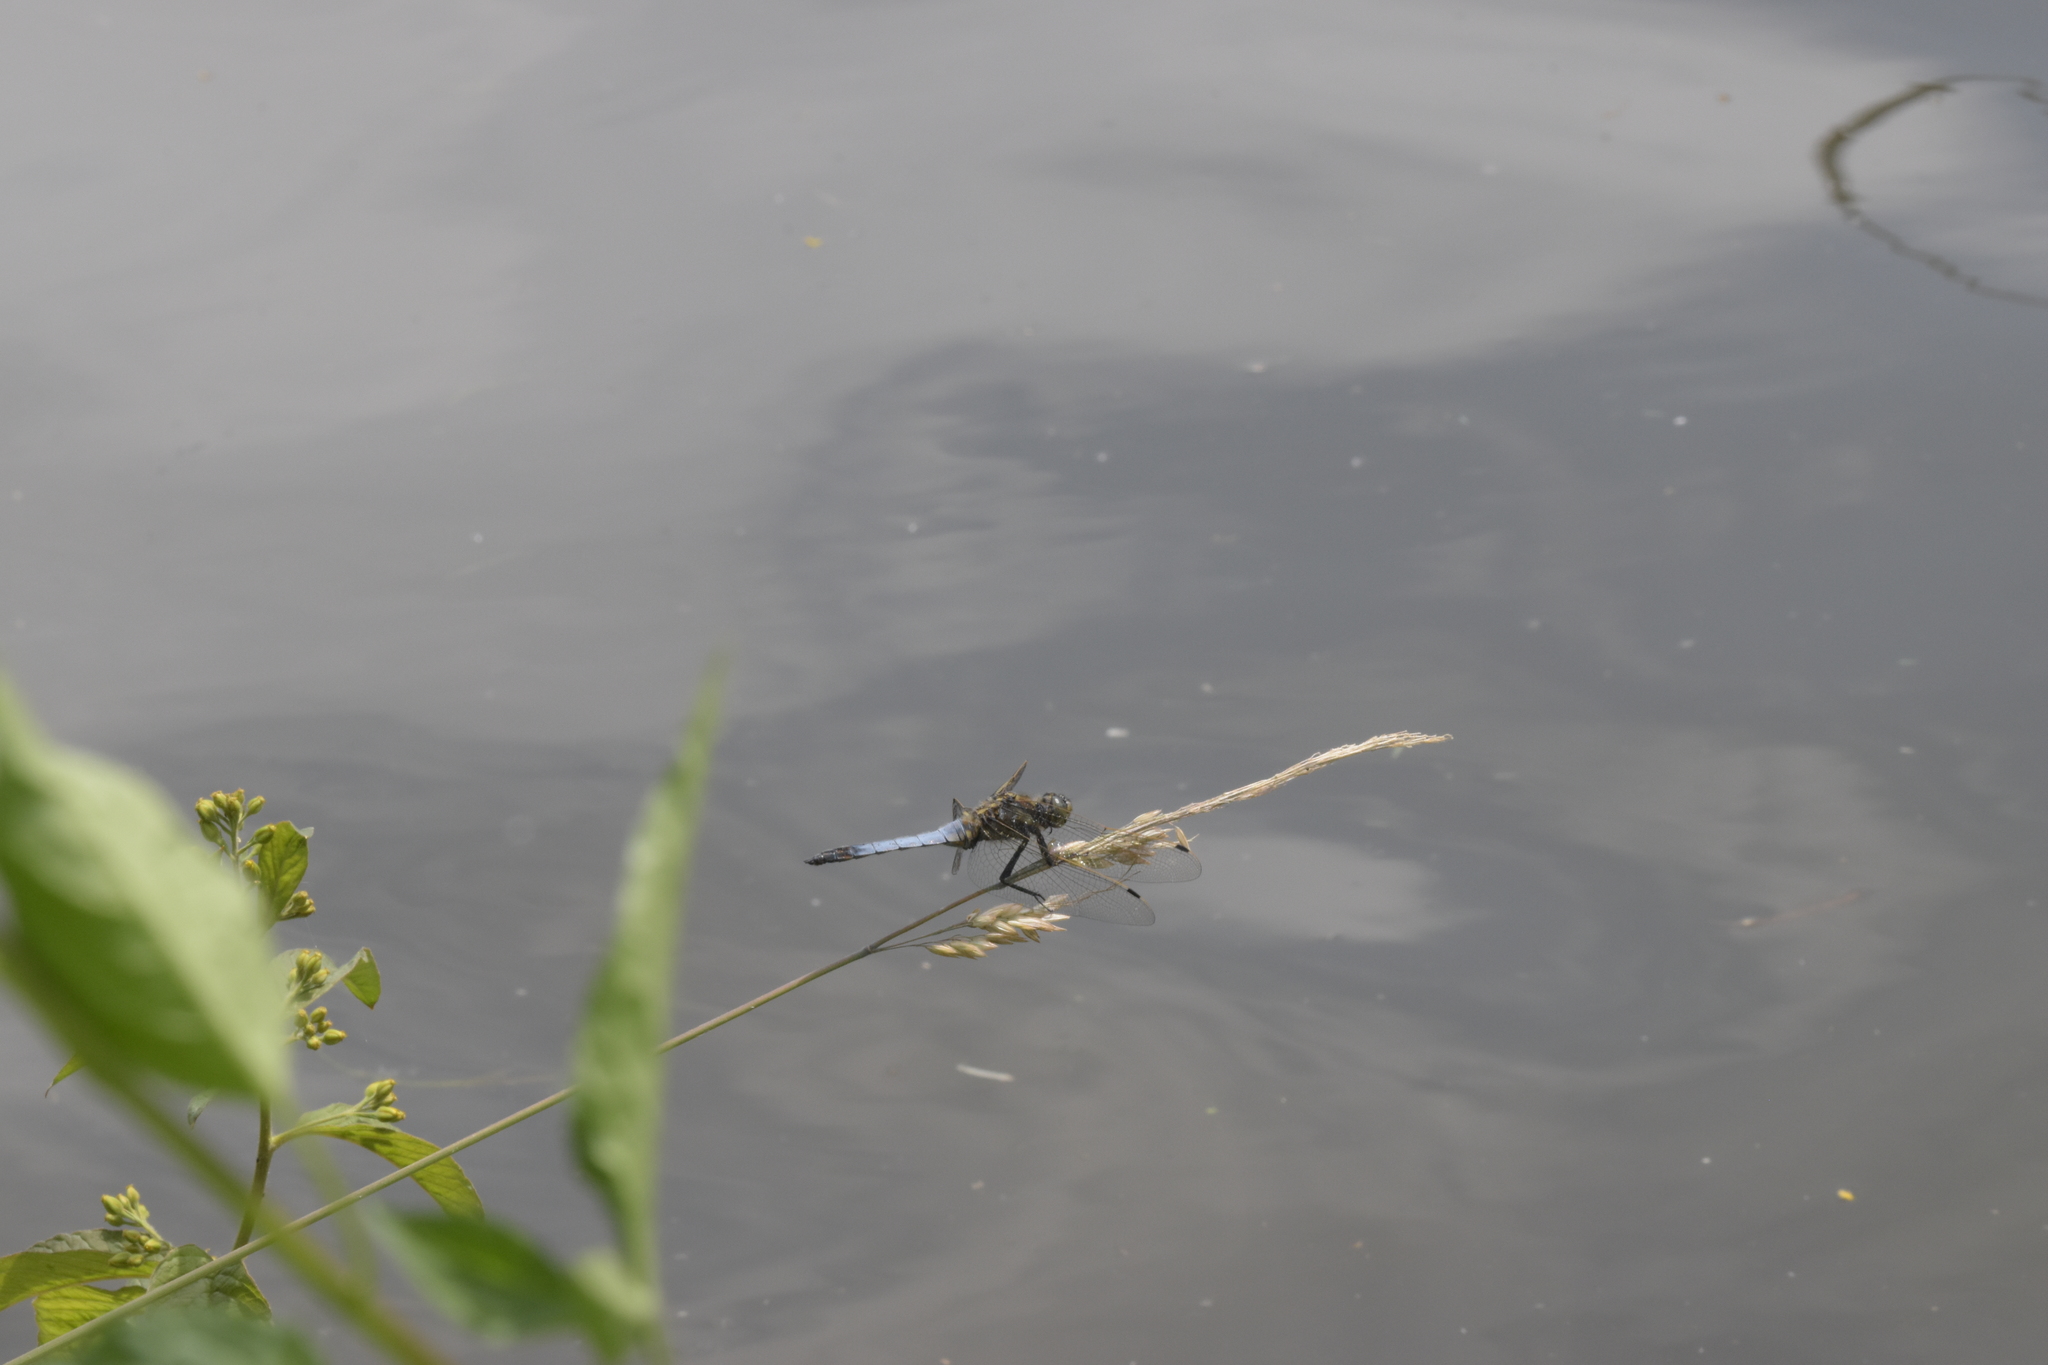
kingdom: Animalia
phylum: Arthropoda
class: Insecta
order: Odonata
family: Libellulidae
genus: Orthetrum
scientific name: Orthetrum cancellatum
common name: Black-tailed skimmer
